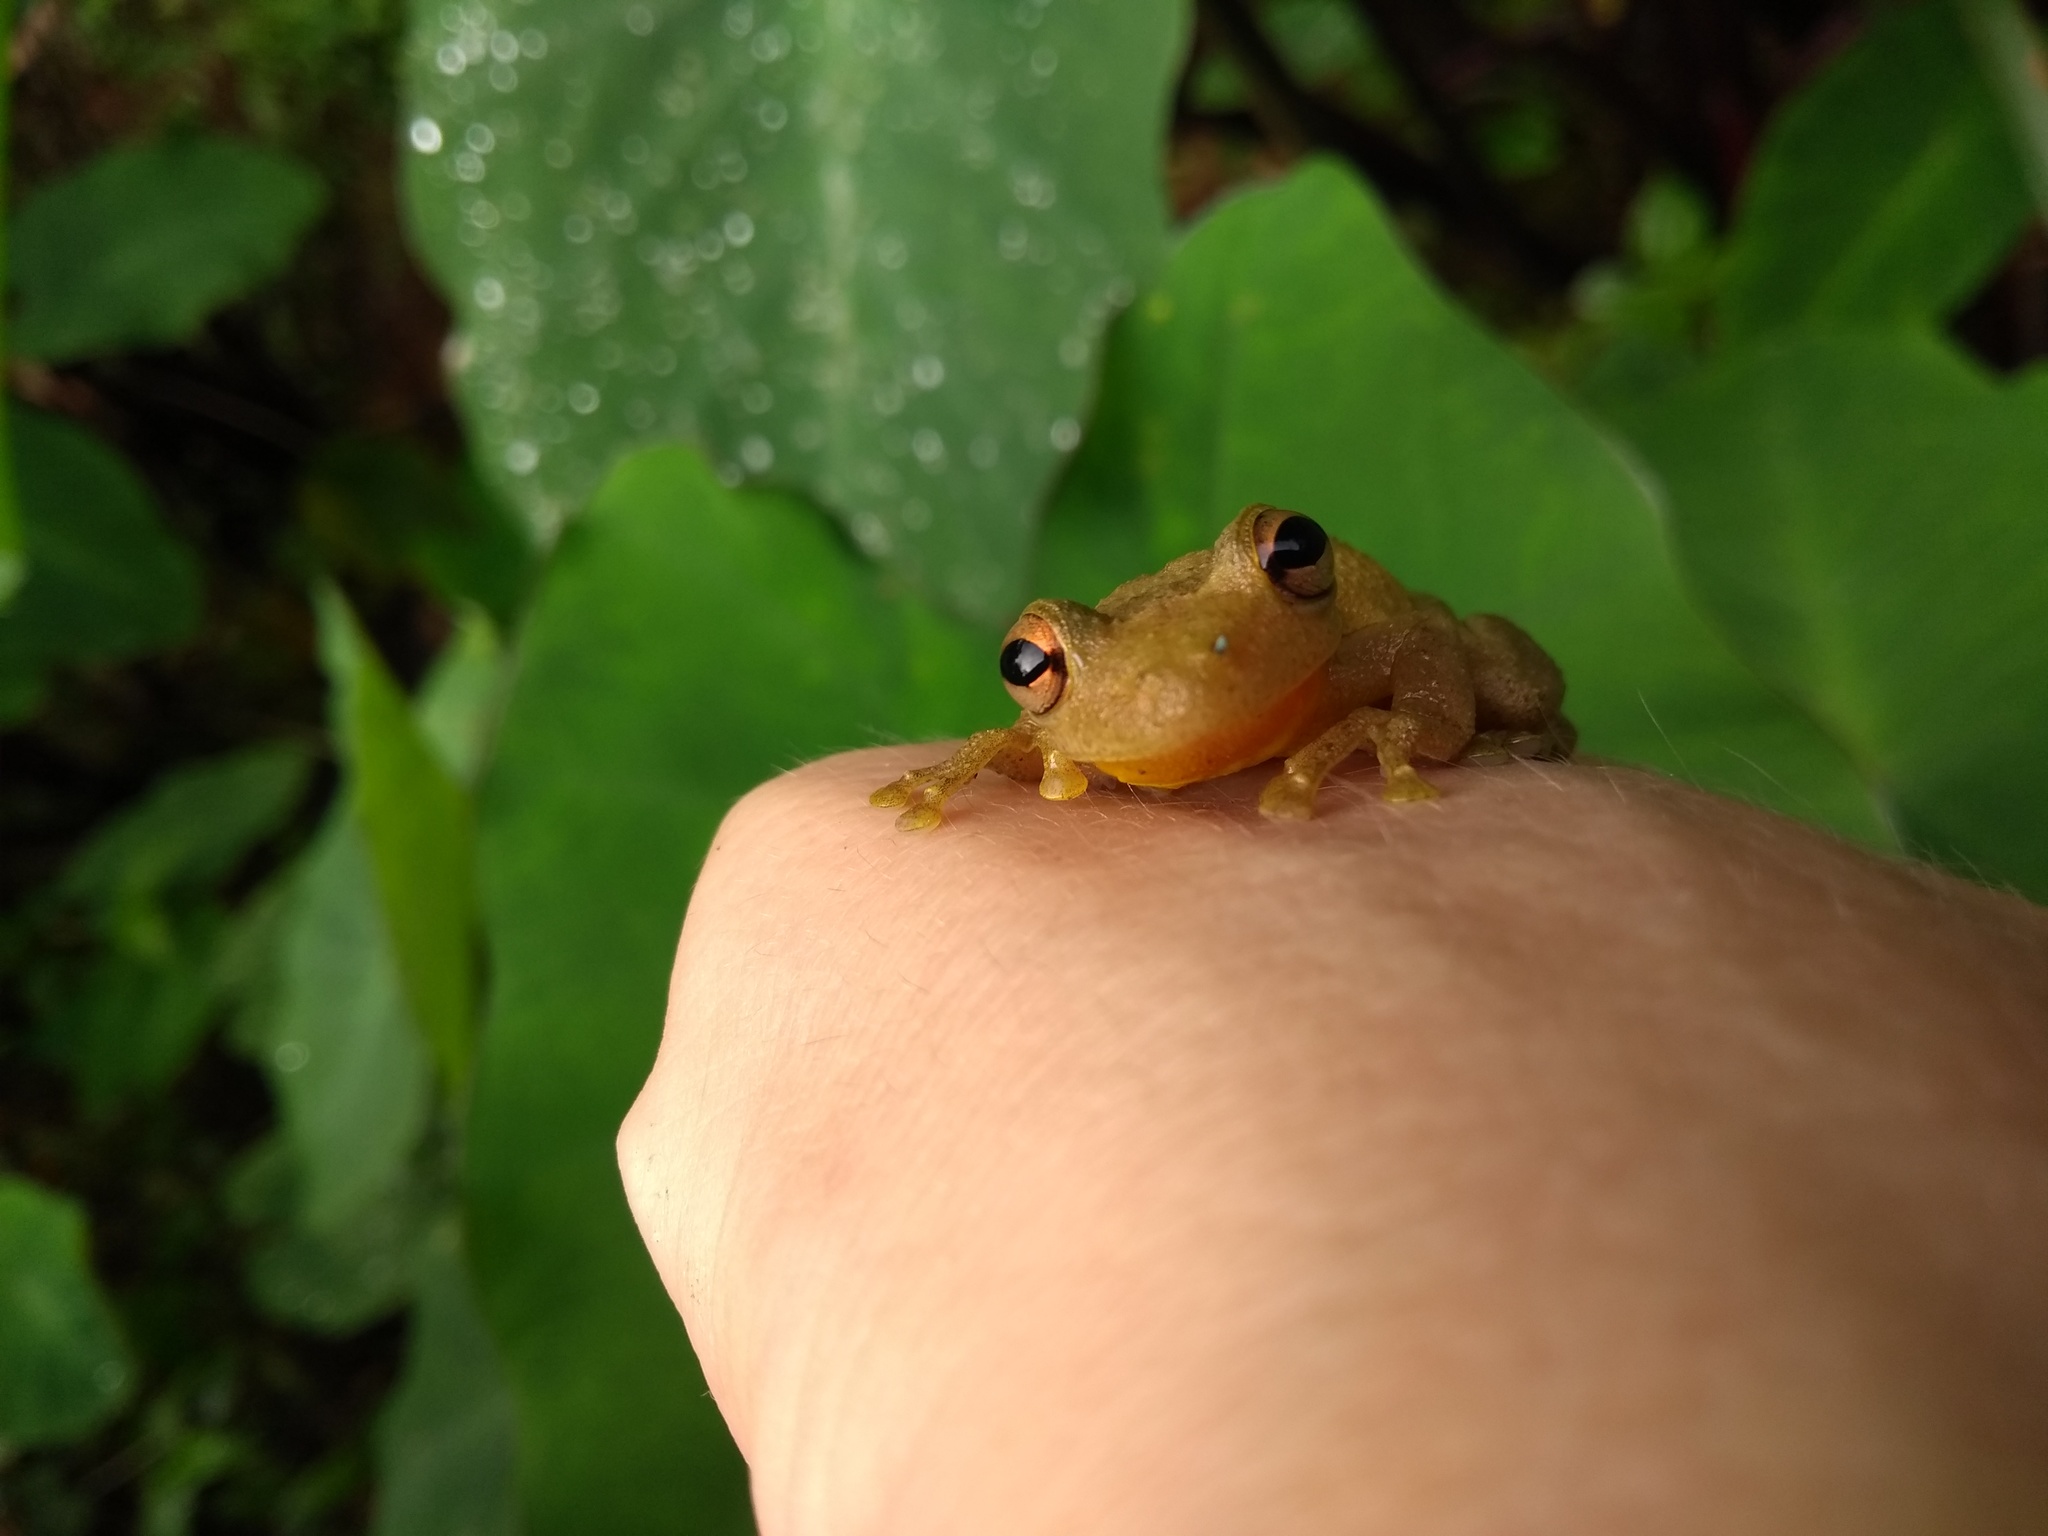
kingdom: Animalia
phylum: Chordata
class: Amphibia
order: Anura
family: Hylidae
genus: Scinax
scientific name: Scinax perereca
